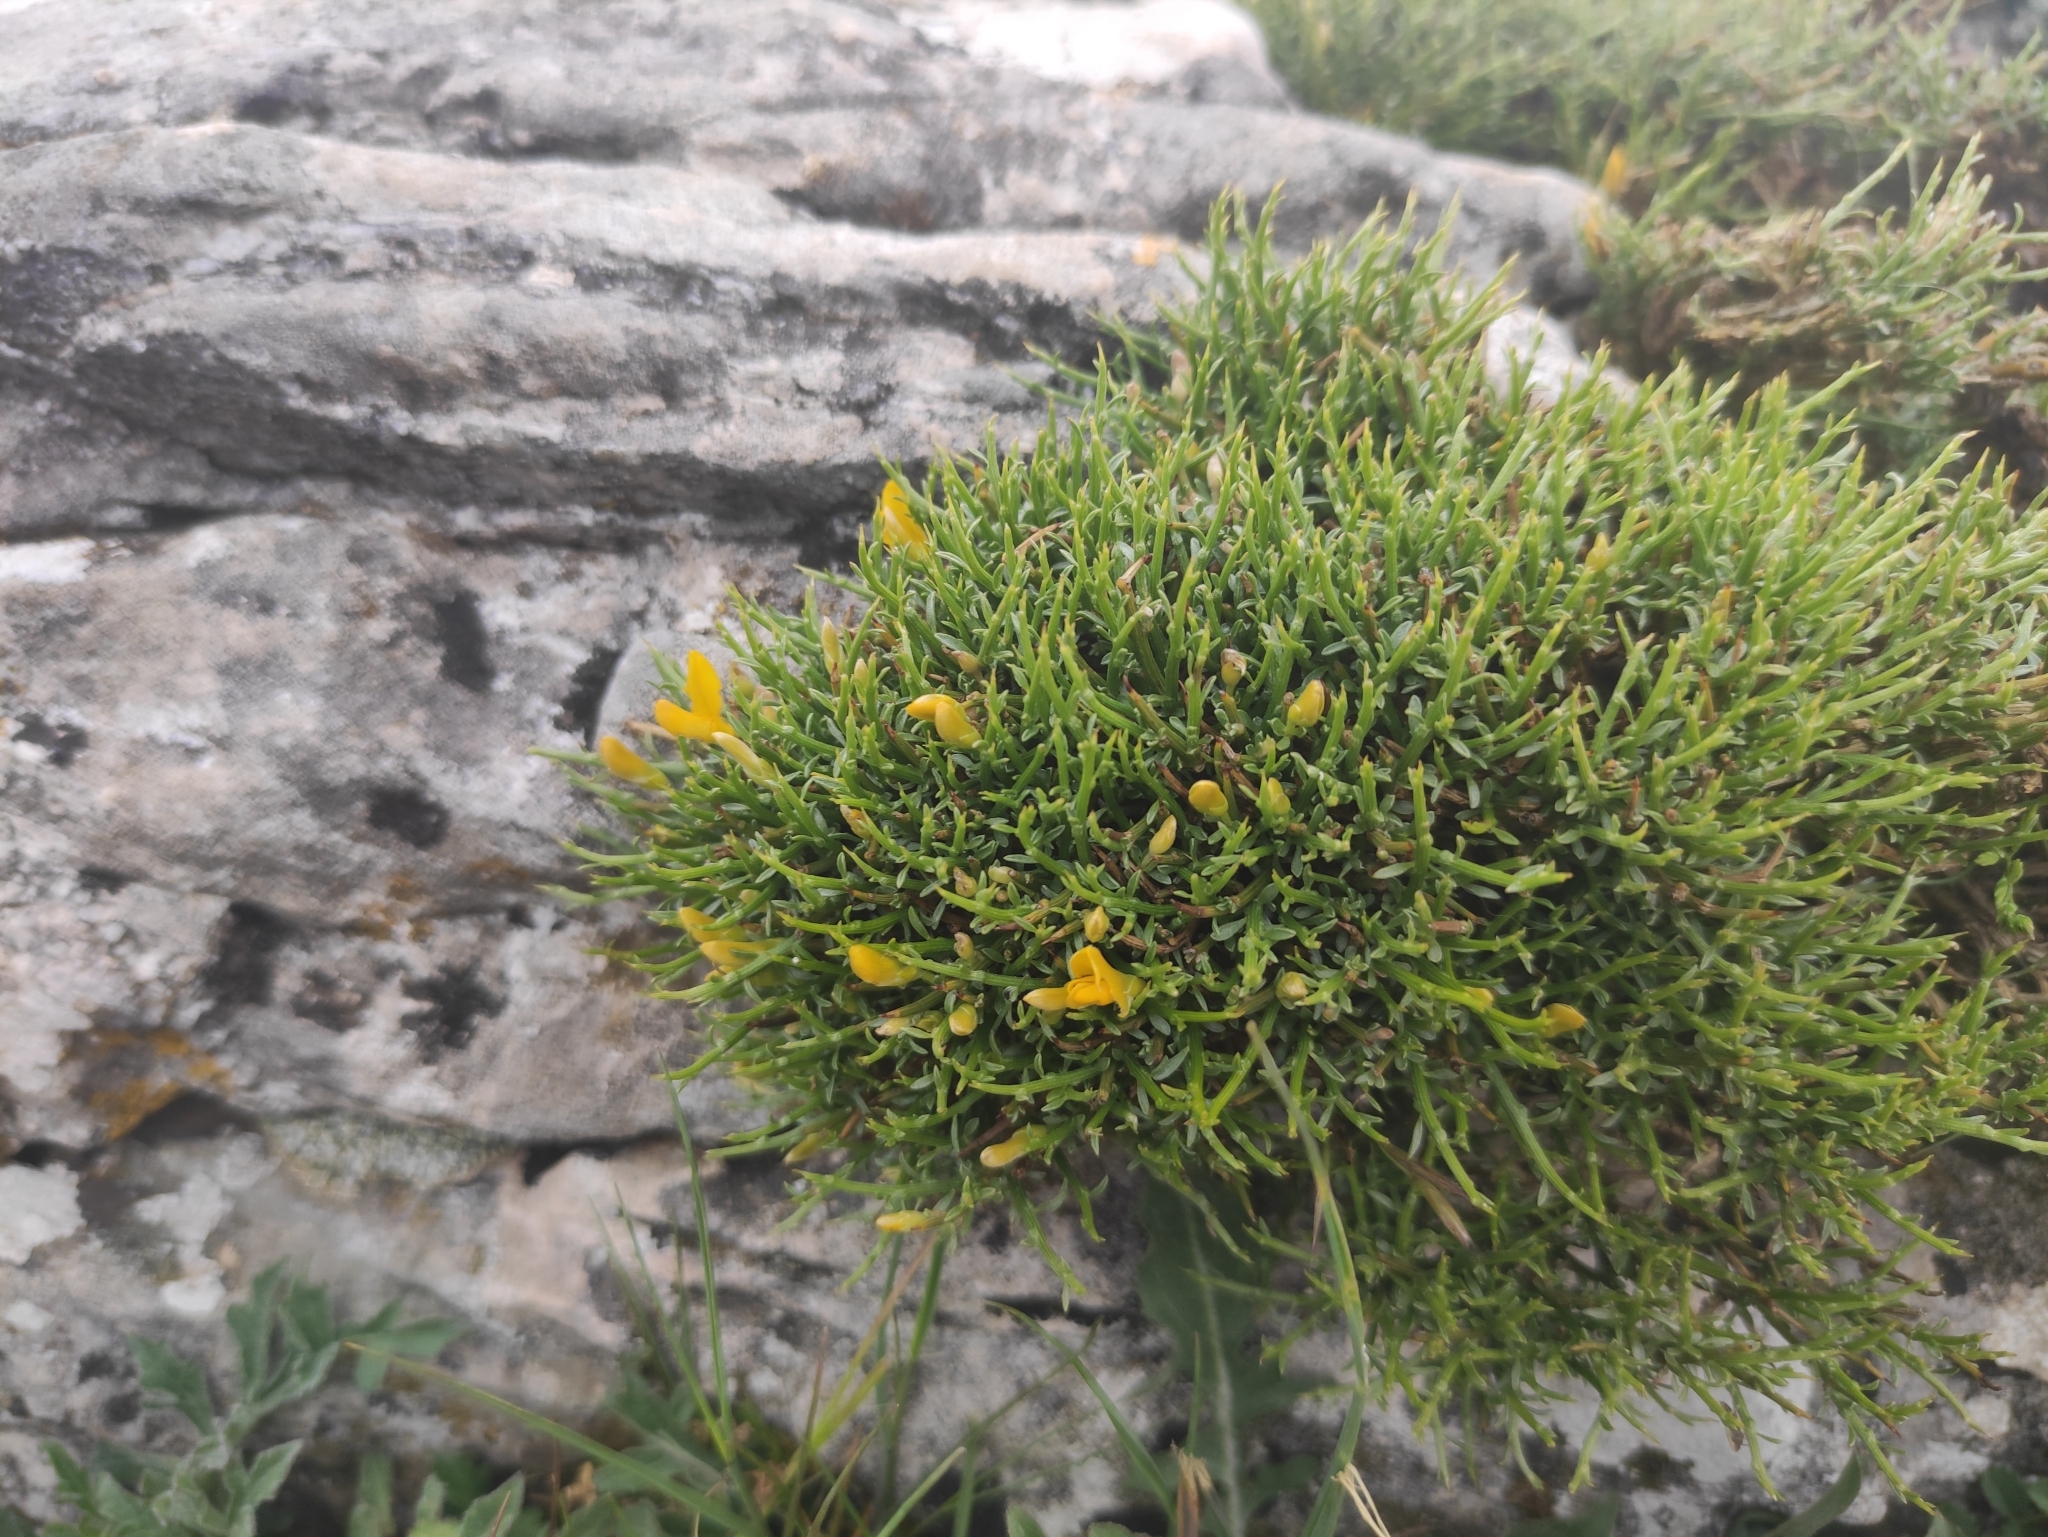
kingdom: Plantae
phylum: Tracheophyta
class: Magnoliopsida
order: Fabales
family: Fabaceae
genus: Genista
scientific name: Genista lobelii
